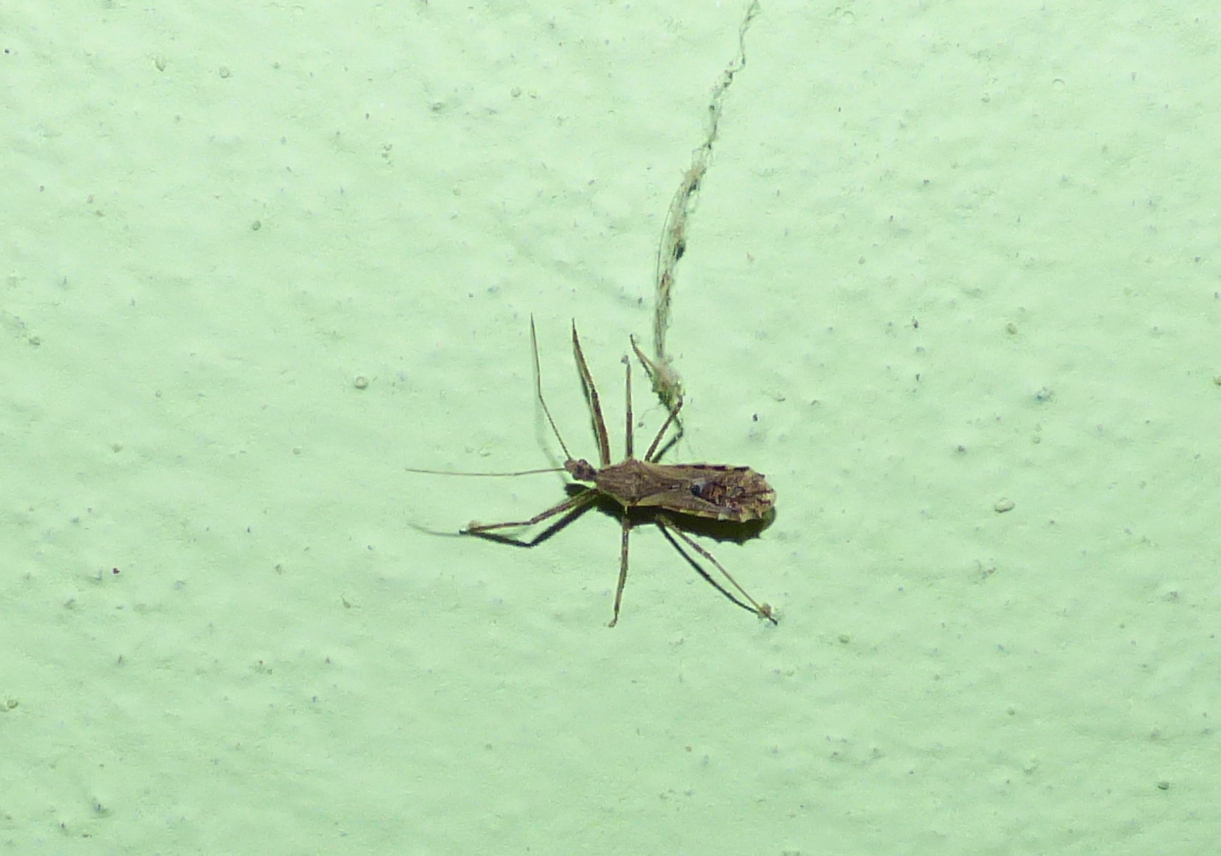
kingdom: Animalia
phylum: Arthropoda
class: Insecta
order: Hemiptera
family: Reduviidae
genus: Atrachelus
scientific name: Atrachelus cinereus
